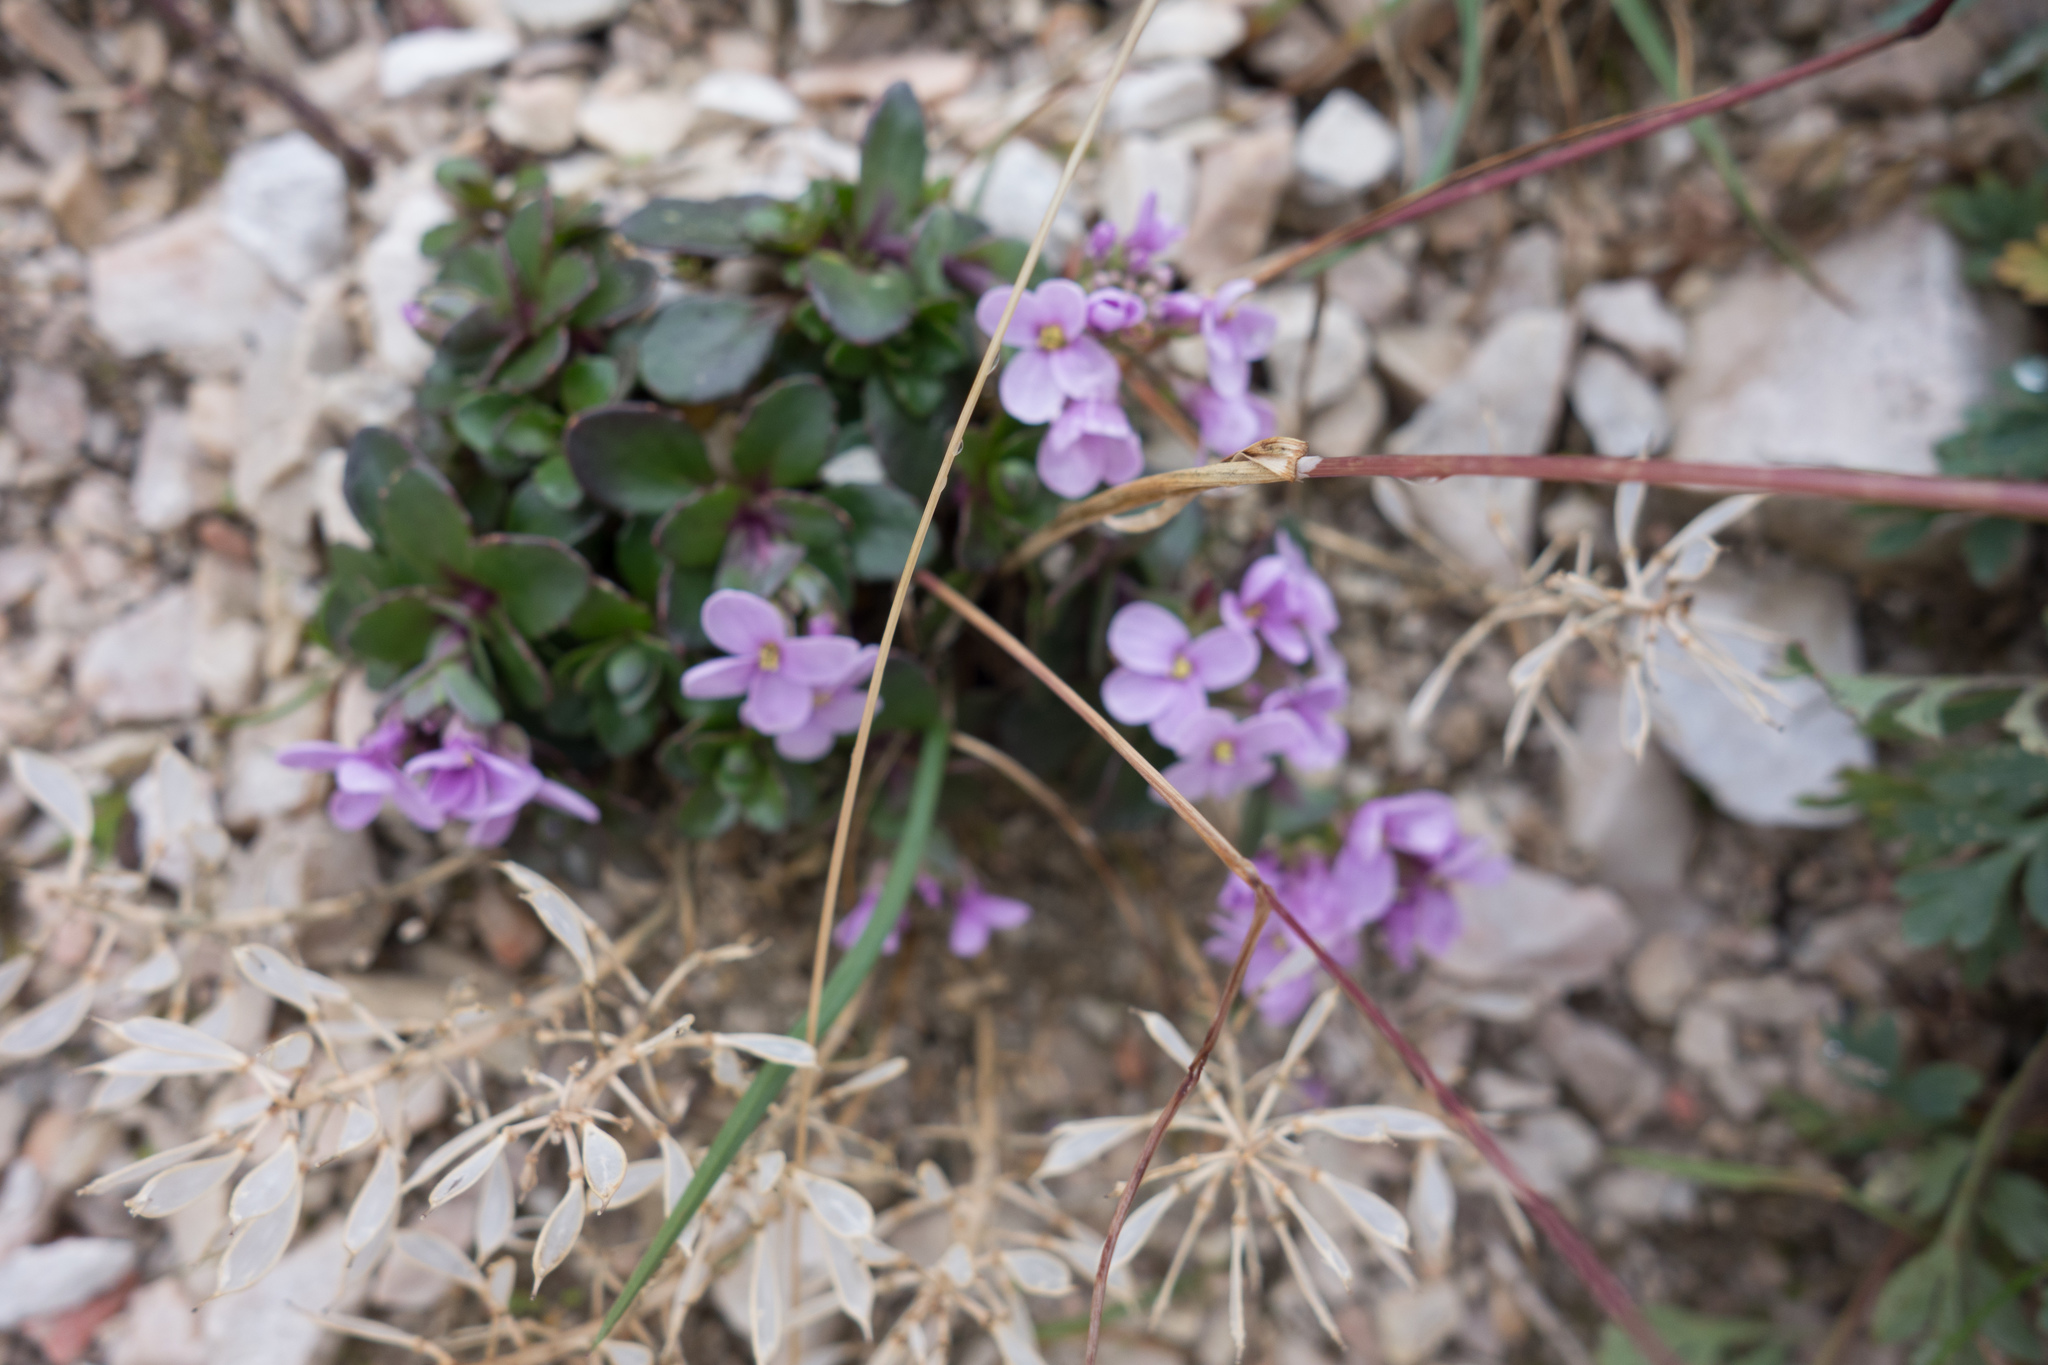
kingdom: Plantae
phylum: Tracheophyta
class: Magnoliopsida
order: Brassicales
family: Brassicaceae
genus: Noccaea
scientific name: Noccaea rotundifolia
